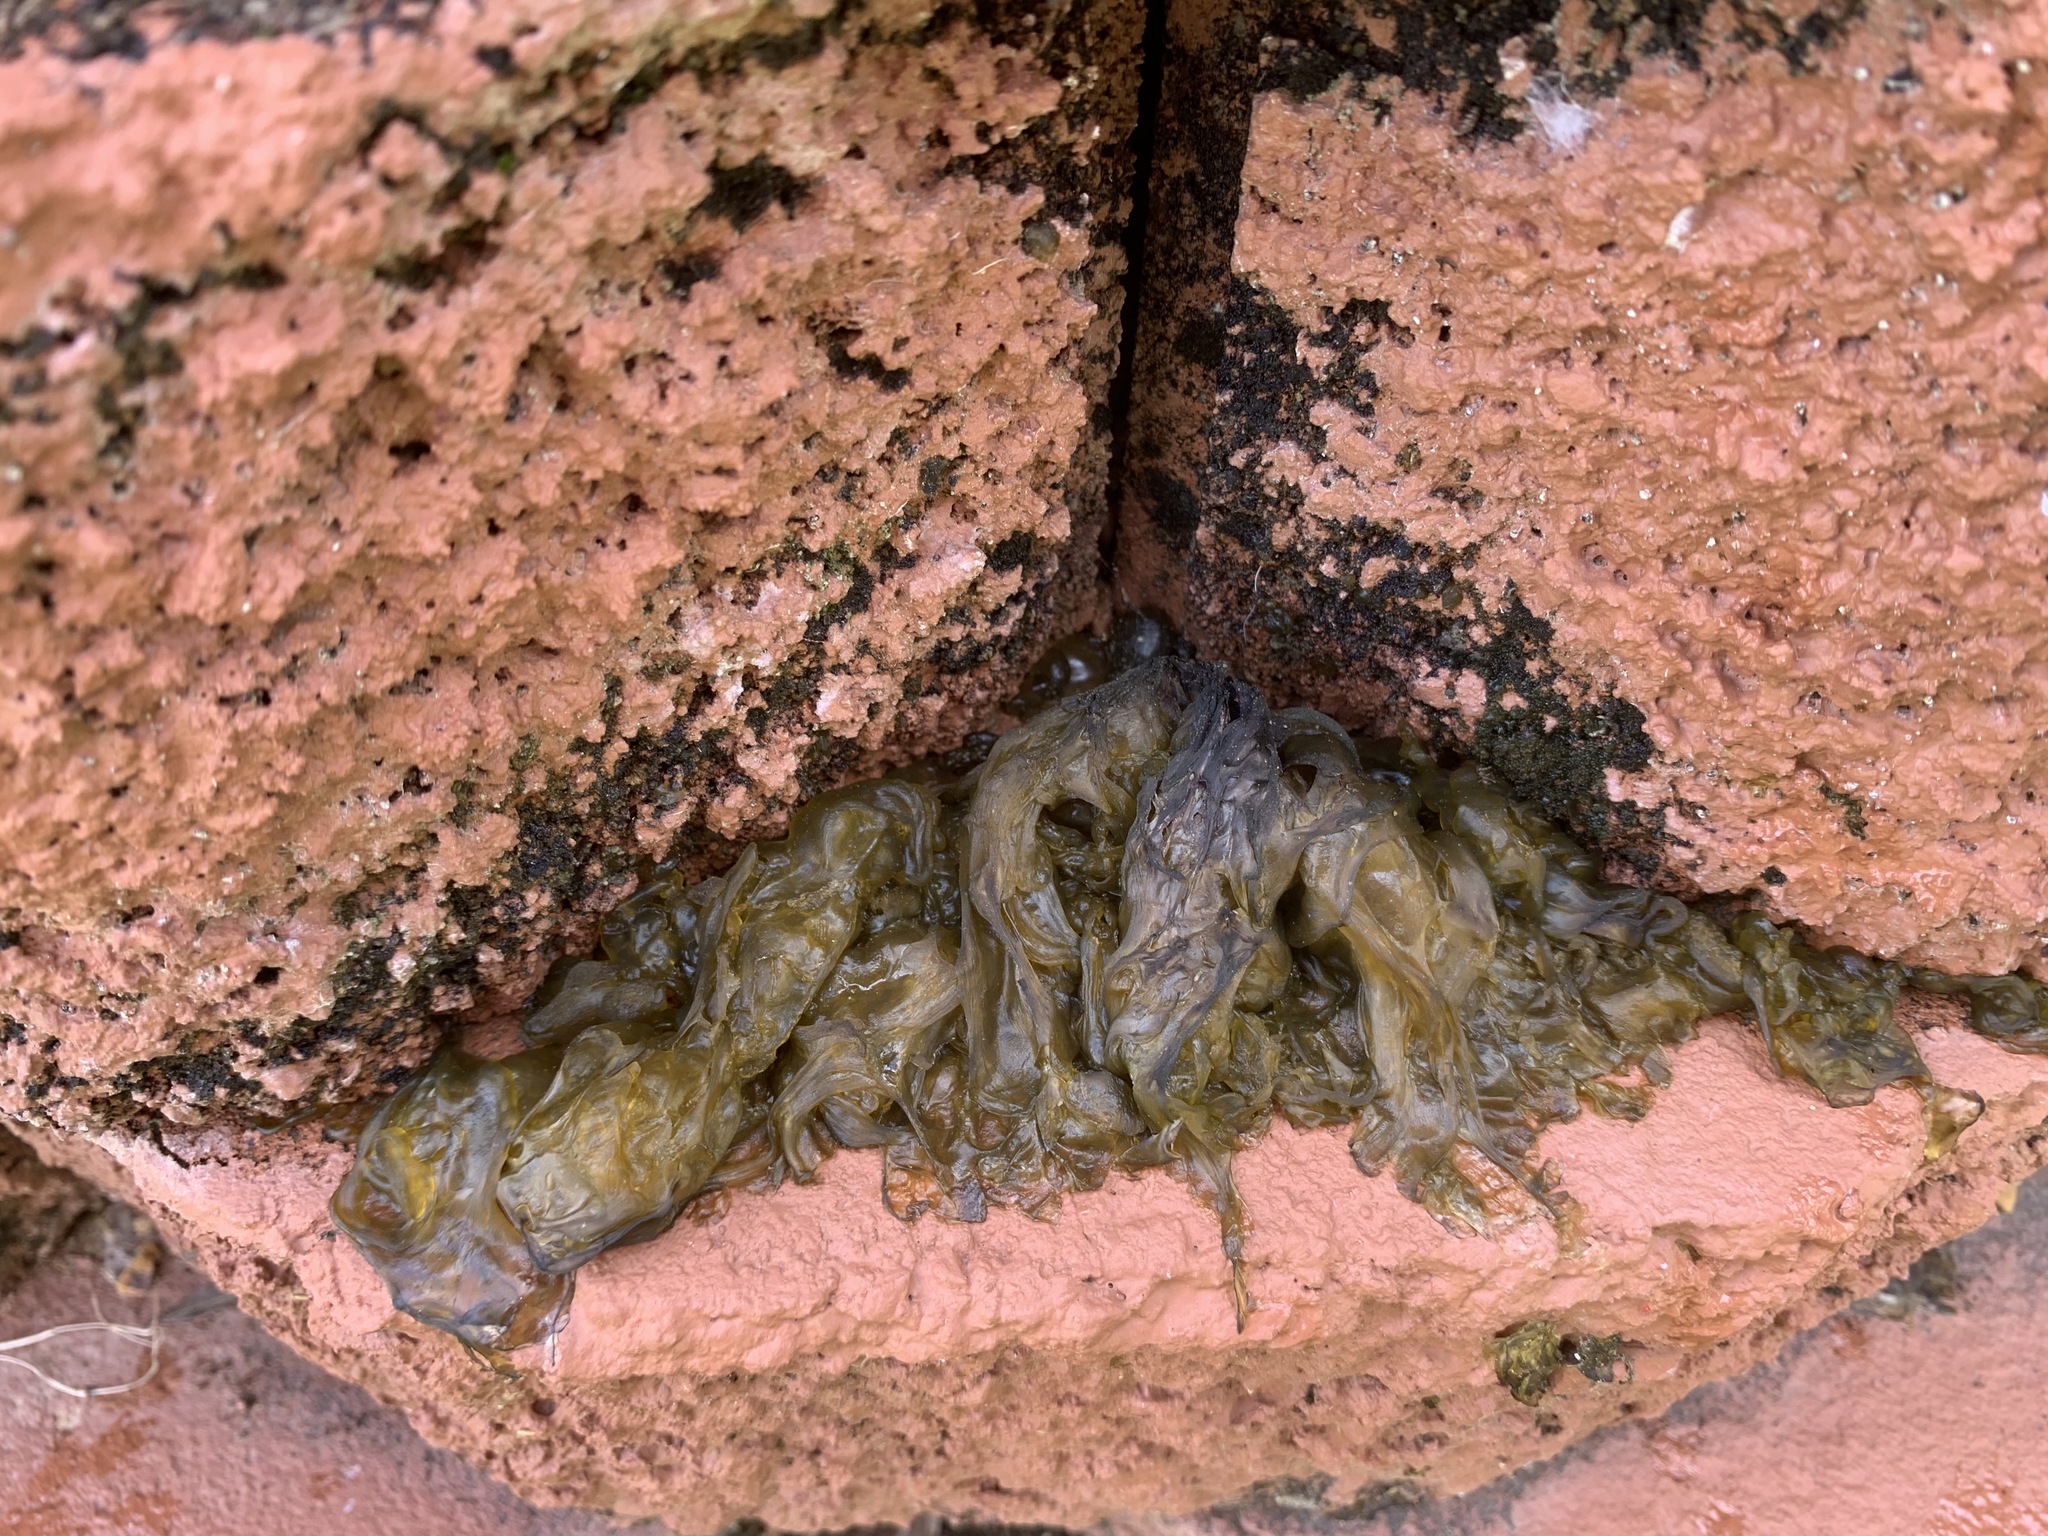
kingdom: Bacteria
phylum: Cyanobacteria
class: Cyanobacteriia
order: Cyanobacteriales
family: Nostocaceae
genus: Nostoc
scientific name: Nostoc commune
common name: Star jelly
